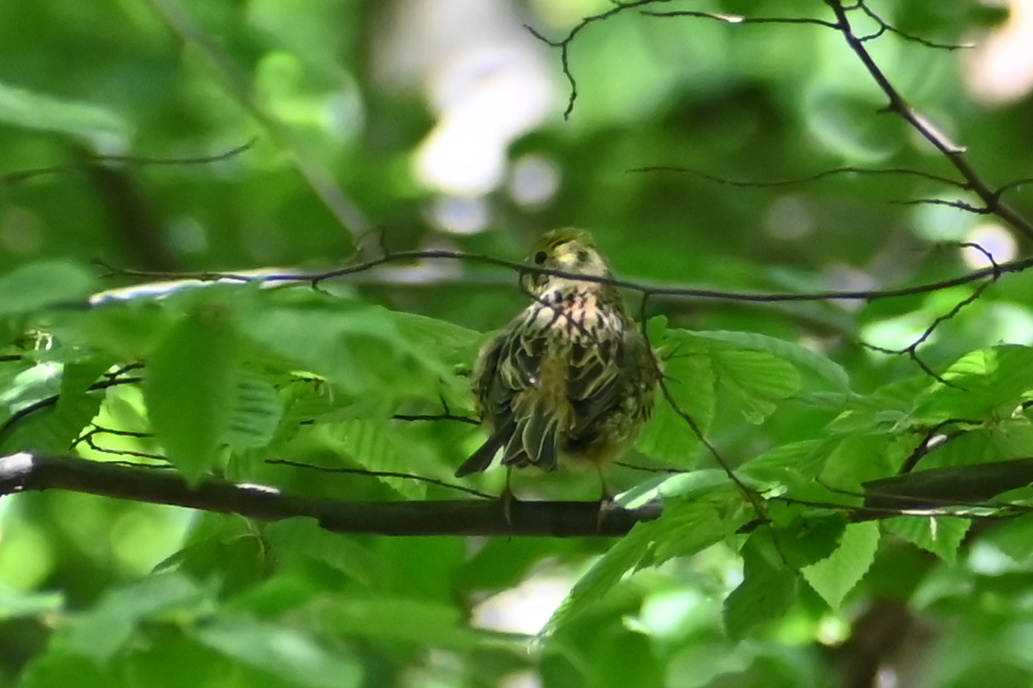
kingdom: Animalia
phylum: Chordata
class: Aves
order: Passeriformes
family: Emberizidae
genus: Emberiza
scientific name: Emberiza citrinella
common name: Yellowhammer
